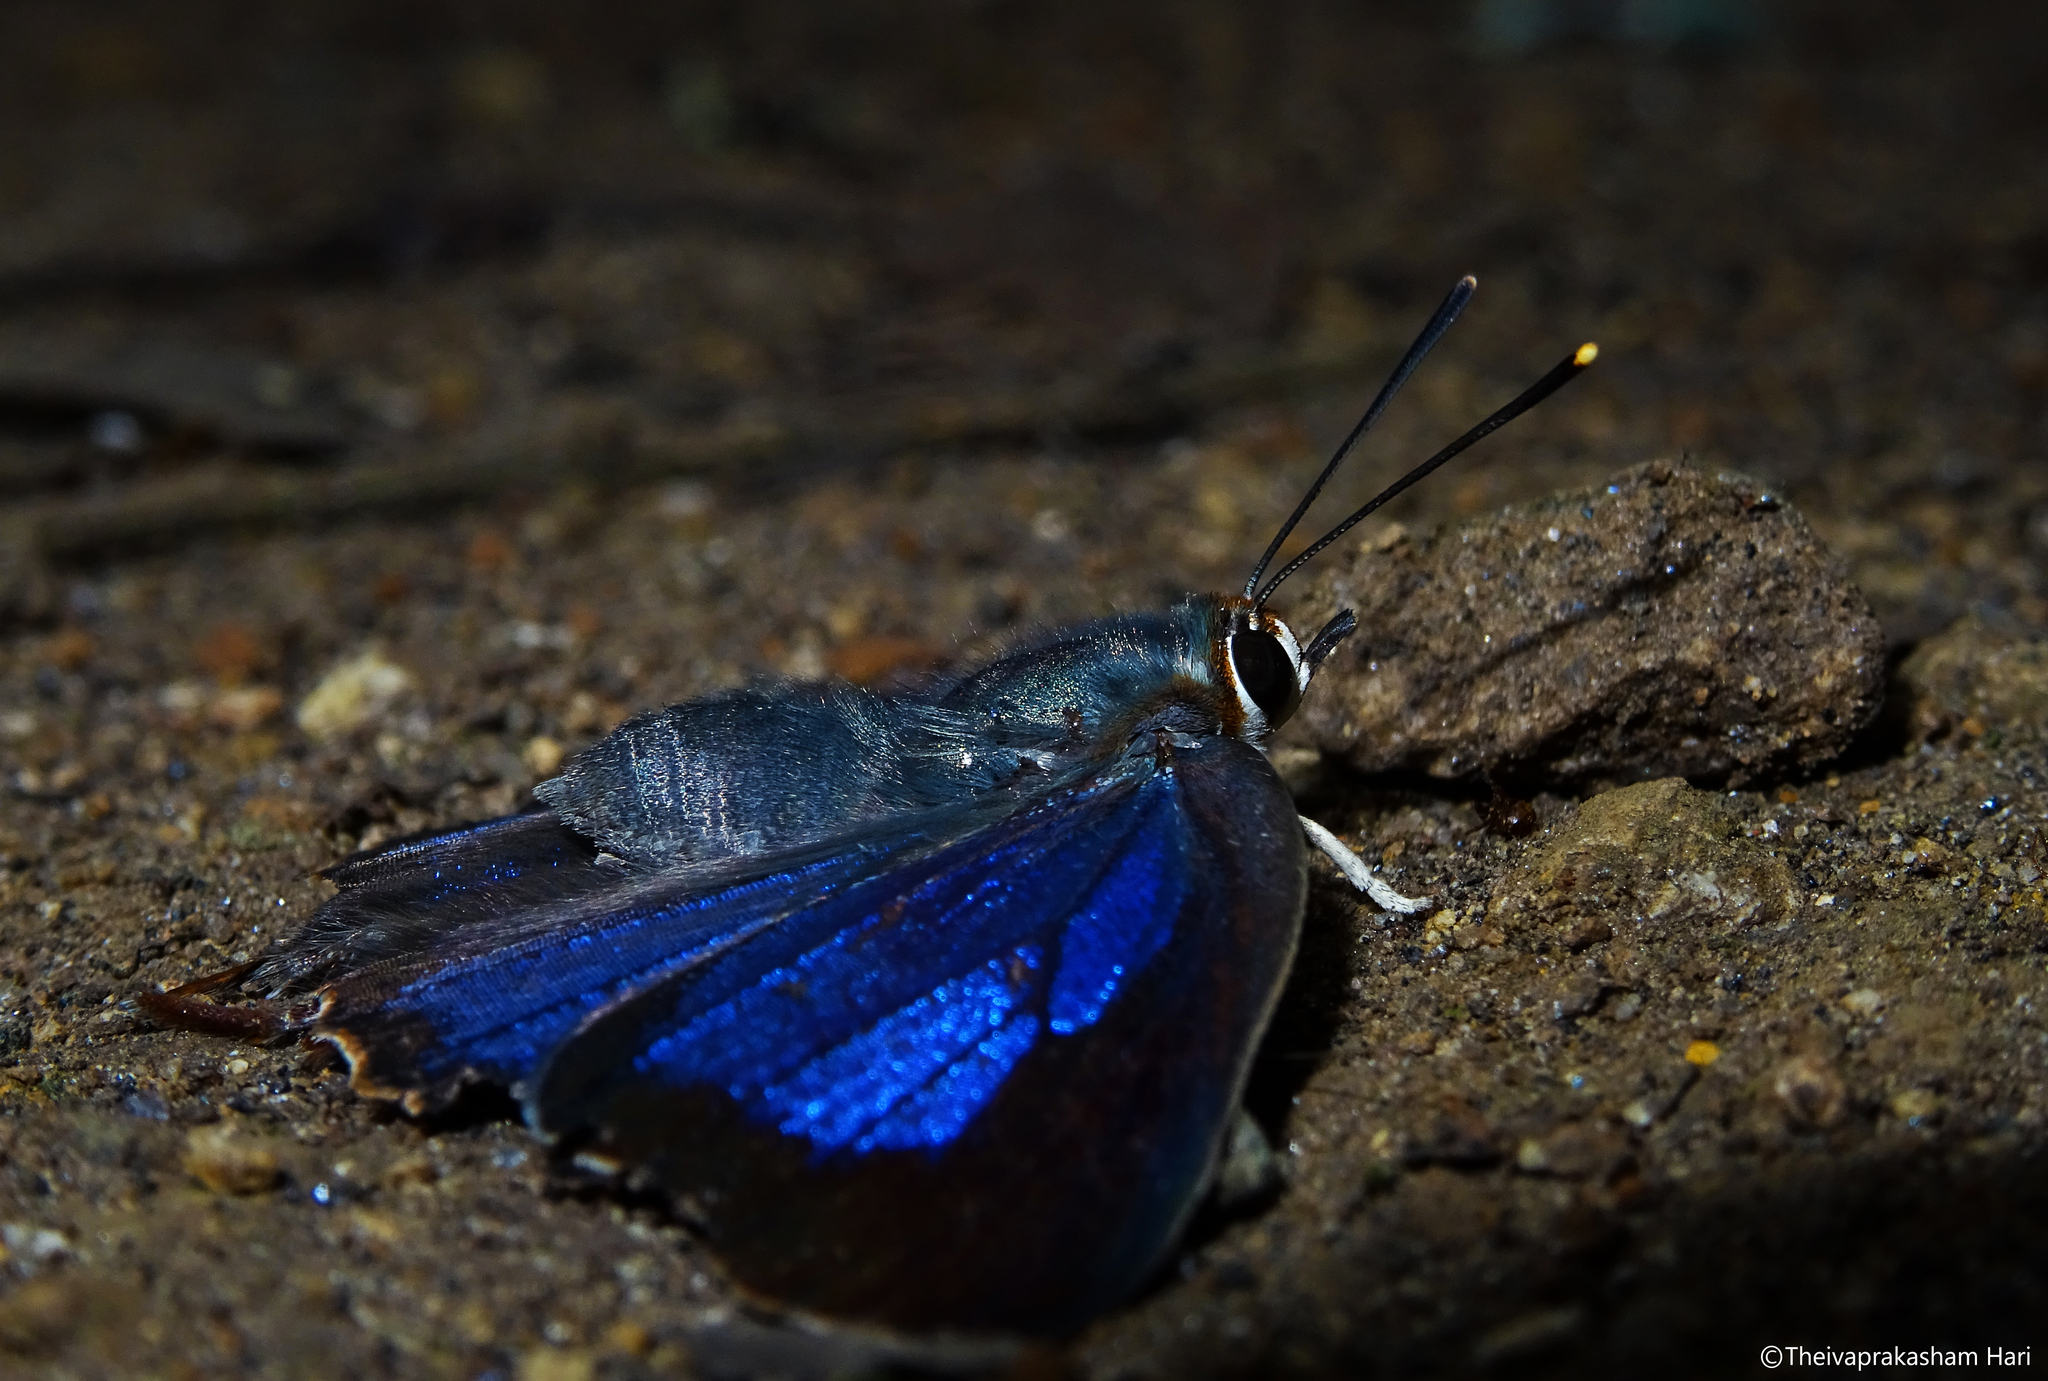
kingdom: Animalia
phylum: Arthropoda
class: Insecta
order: Lepidoptera
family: Lycaenidae
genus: Iraota
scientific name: Iraota timoleon
